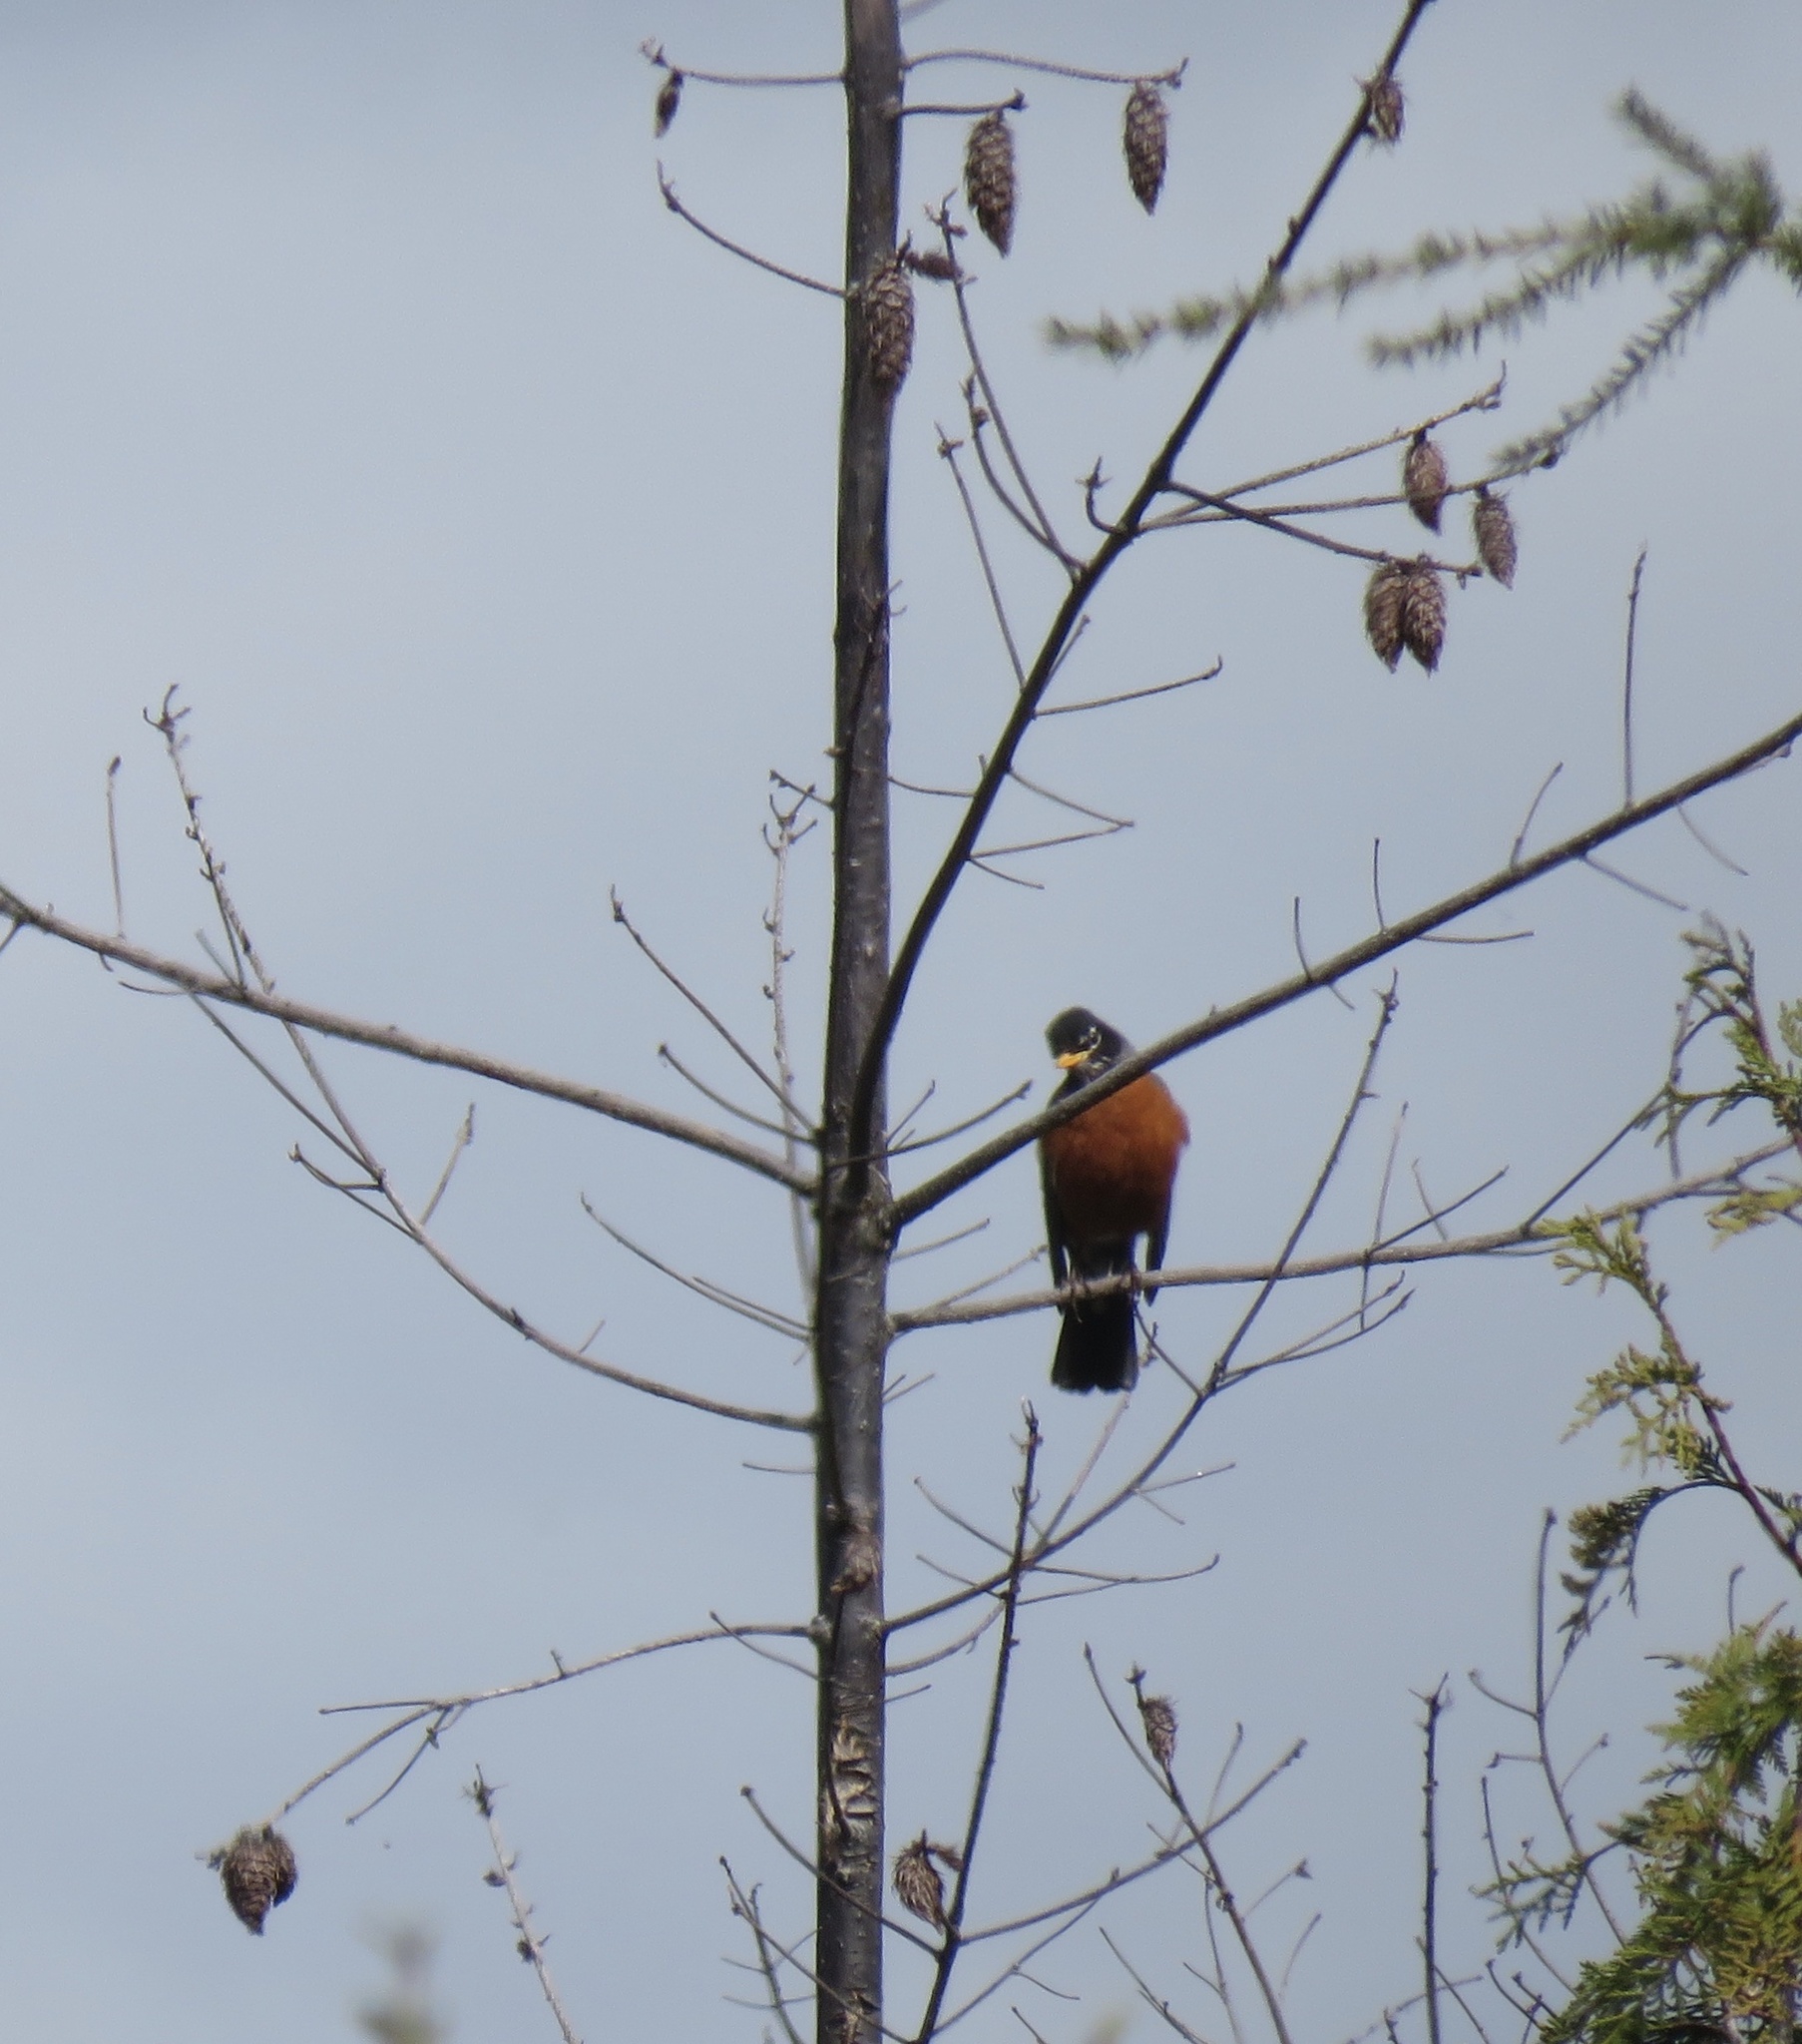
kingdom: Animalia
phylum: Chordata
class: Aves
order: Passeriformes
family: Turdidae
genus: Turdus
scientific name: Turdus migratorius
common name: American robin
